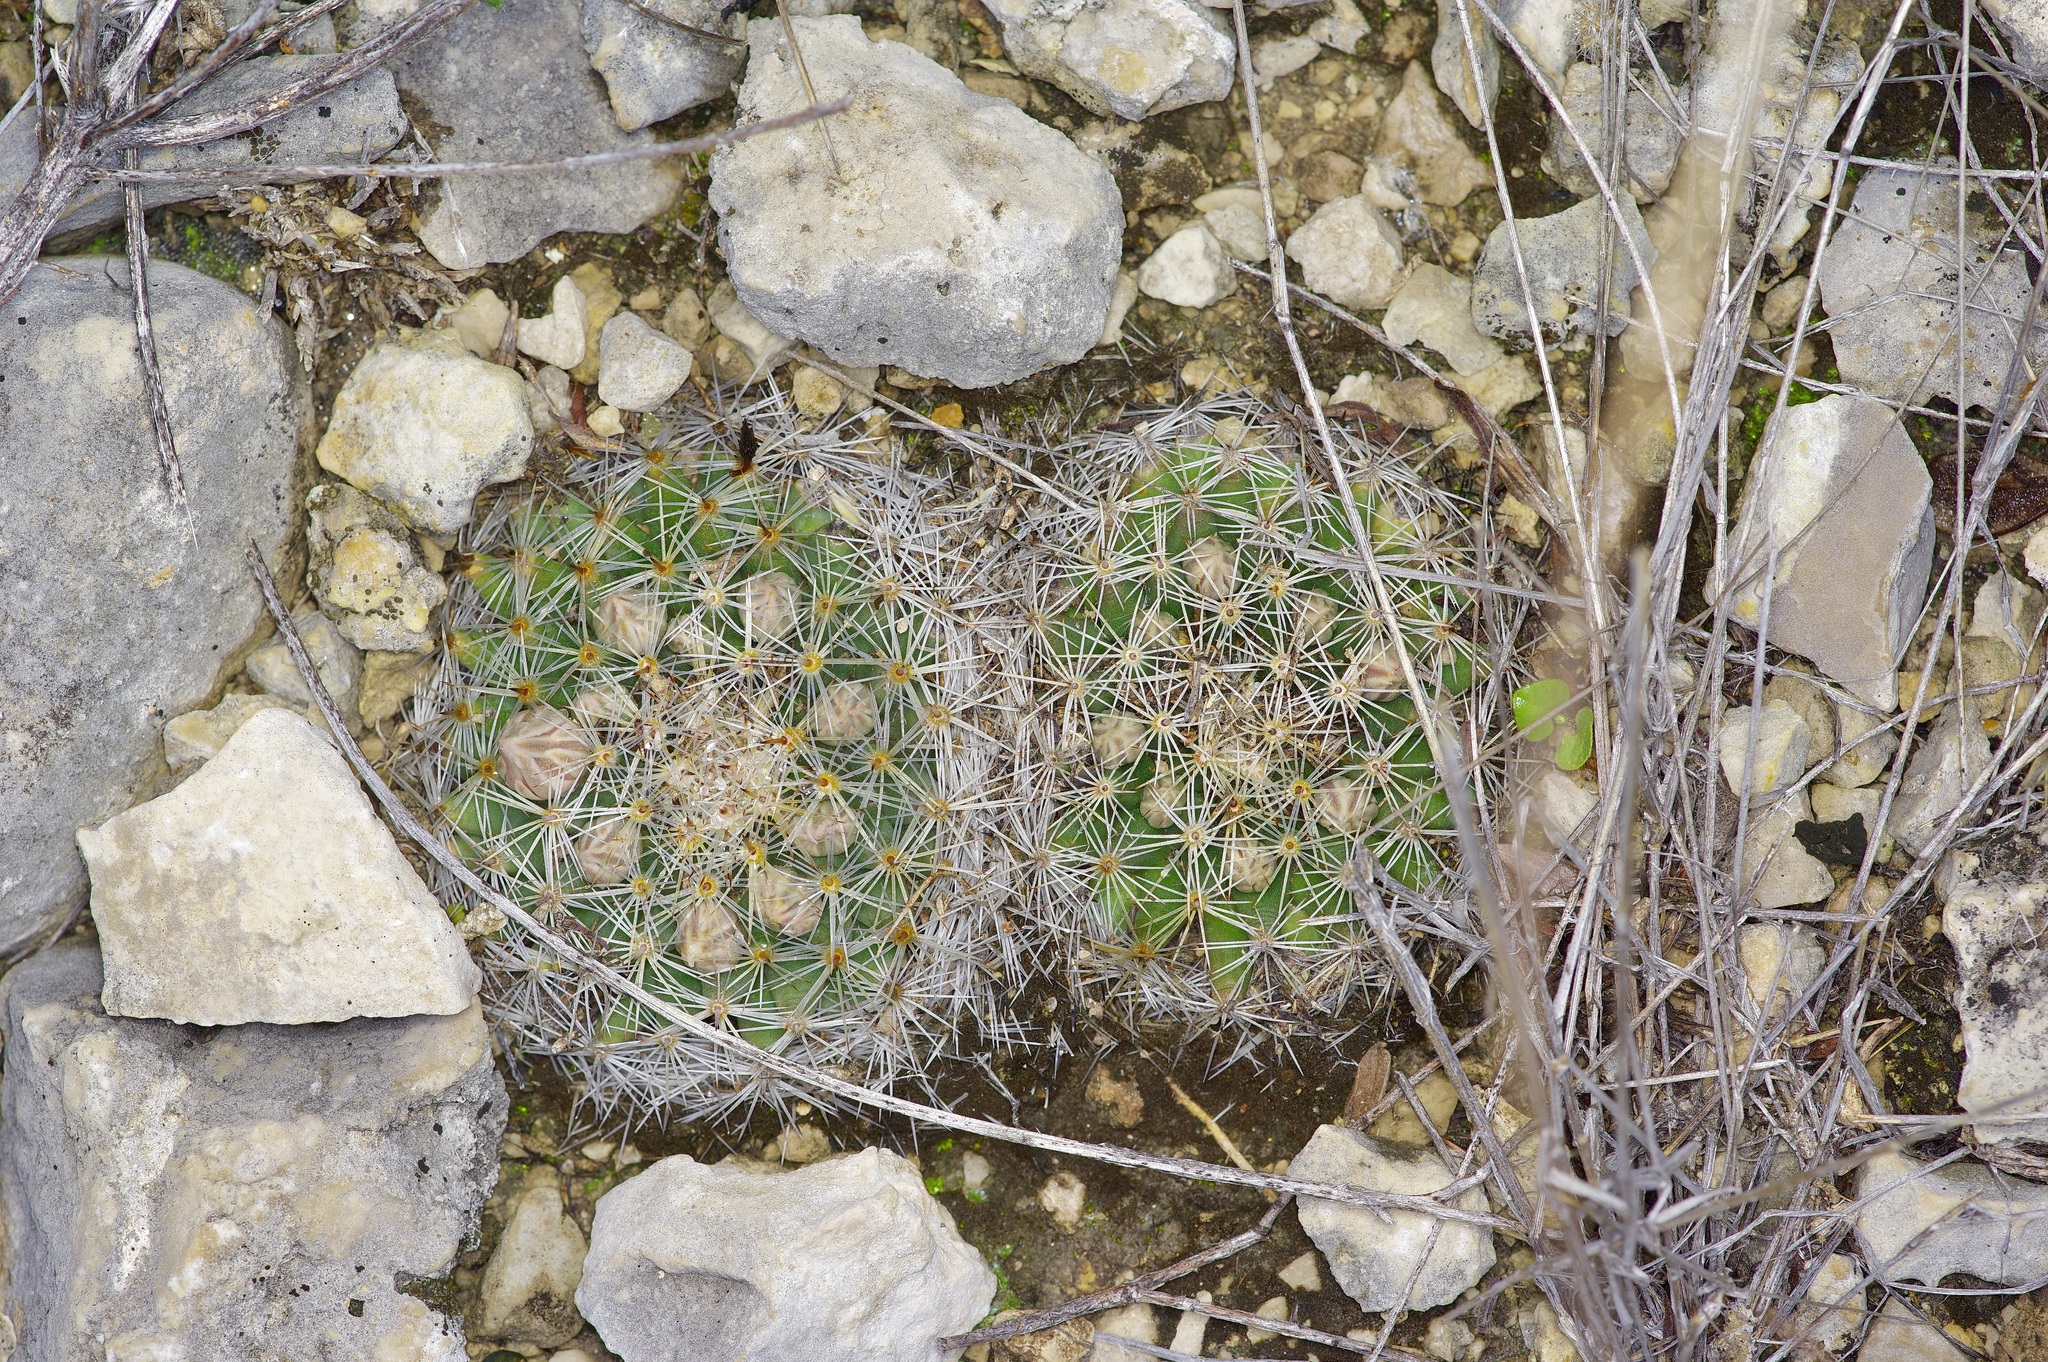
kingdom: Plantae
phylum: Tracheophyta
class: Magnoliopsida
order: Caryophyllales
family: Cactaceae
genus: Mammillaria
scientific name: Mammillaria heyderi
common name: Little nipple cactus
